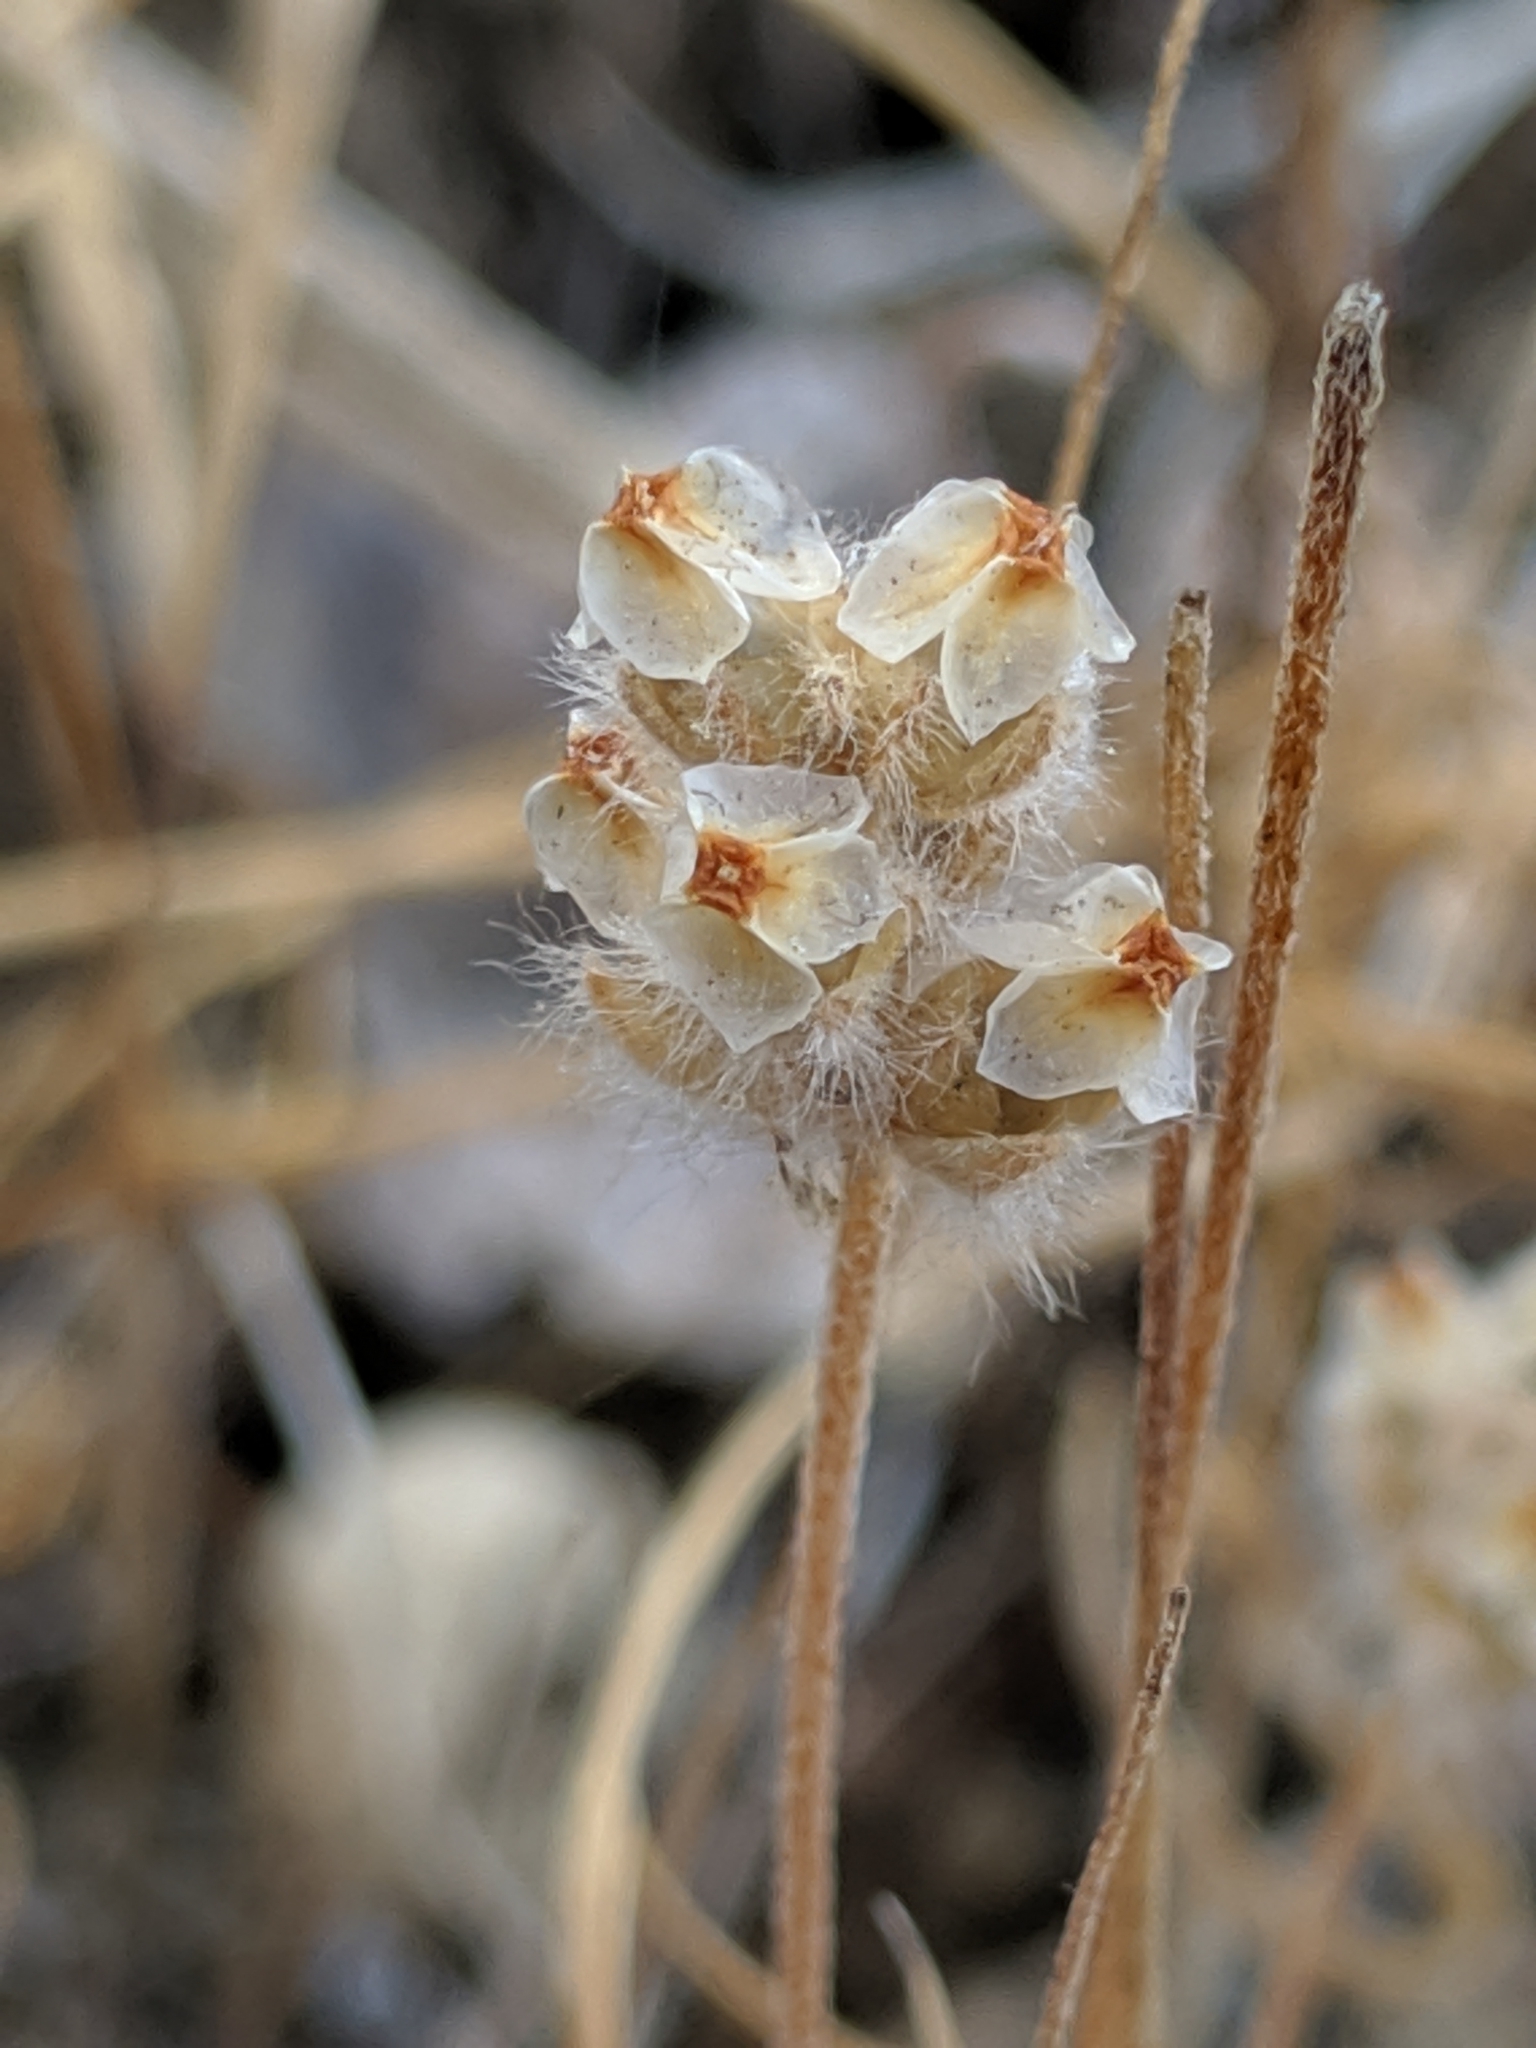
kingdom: Plantae
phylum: Tracheophyta
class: Magnoliopsida
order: Lamiales
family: Plantaginaceae
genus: Plantago
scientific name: Plantago erecta
